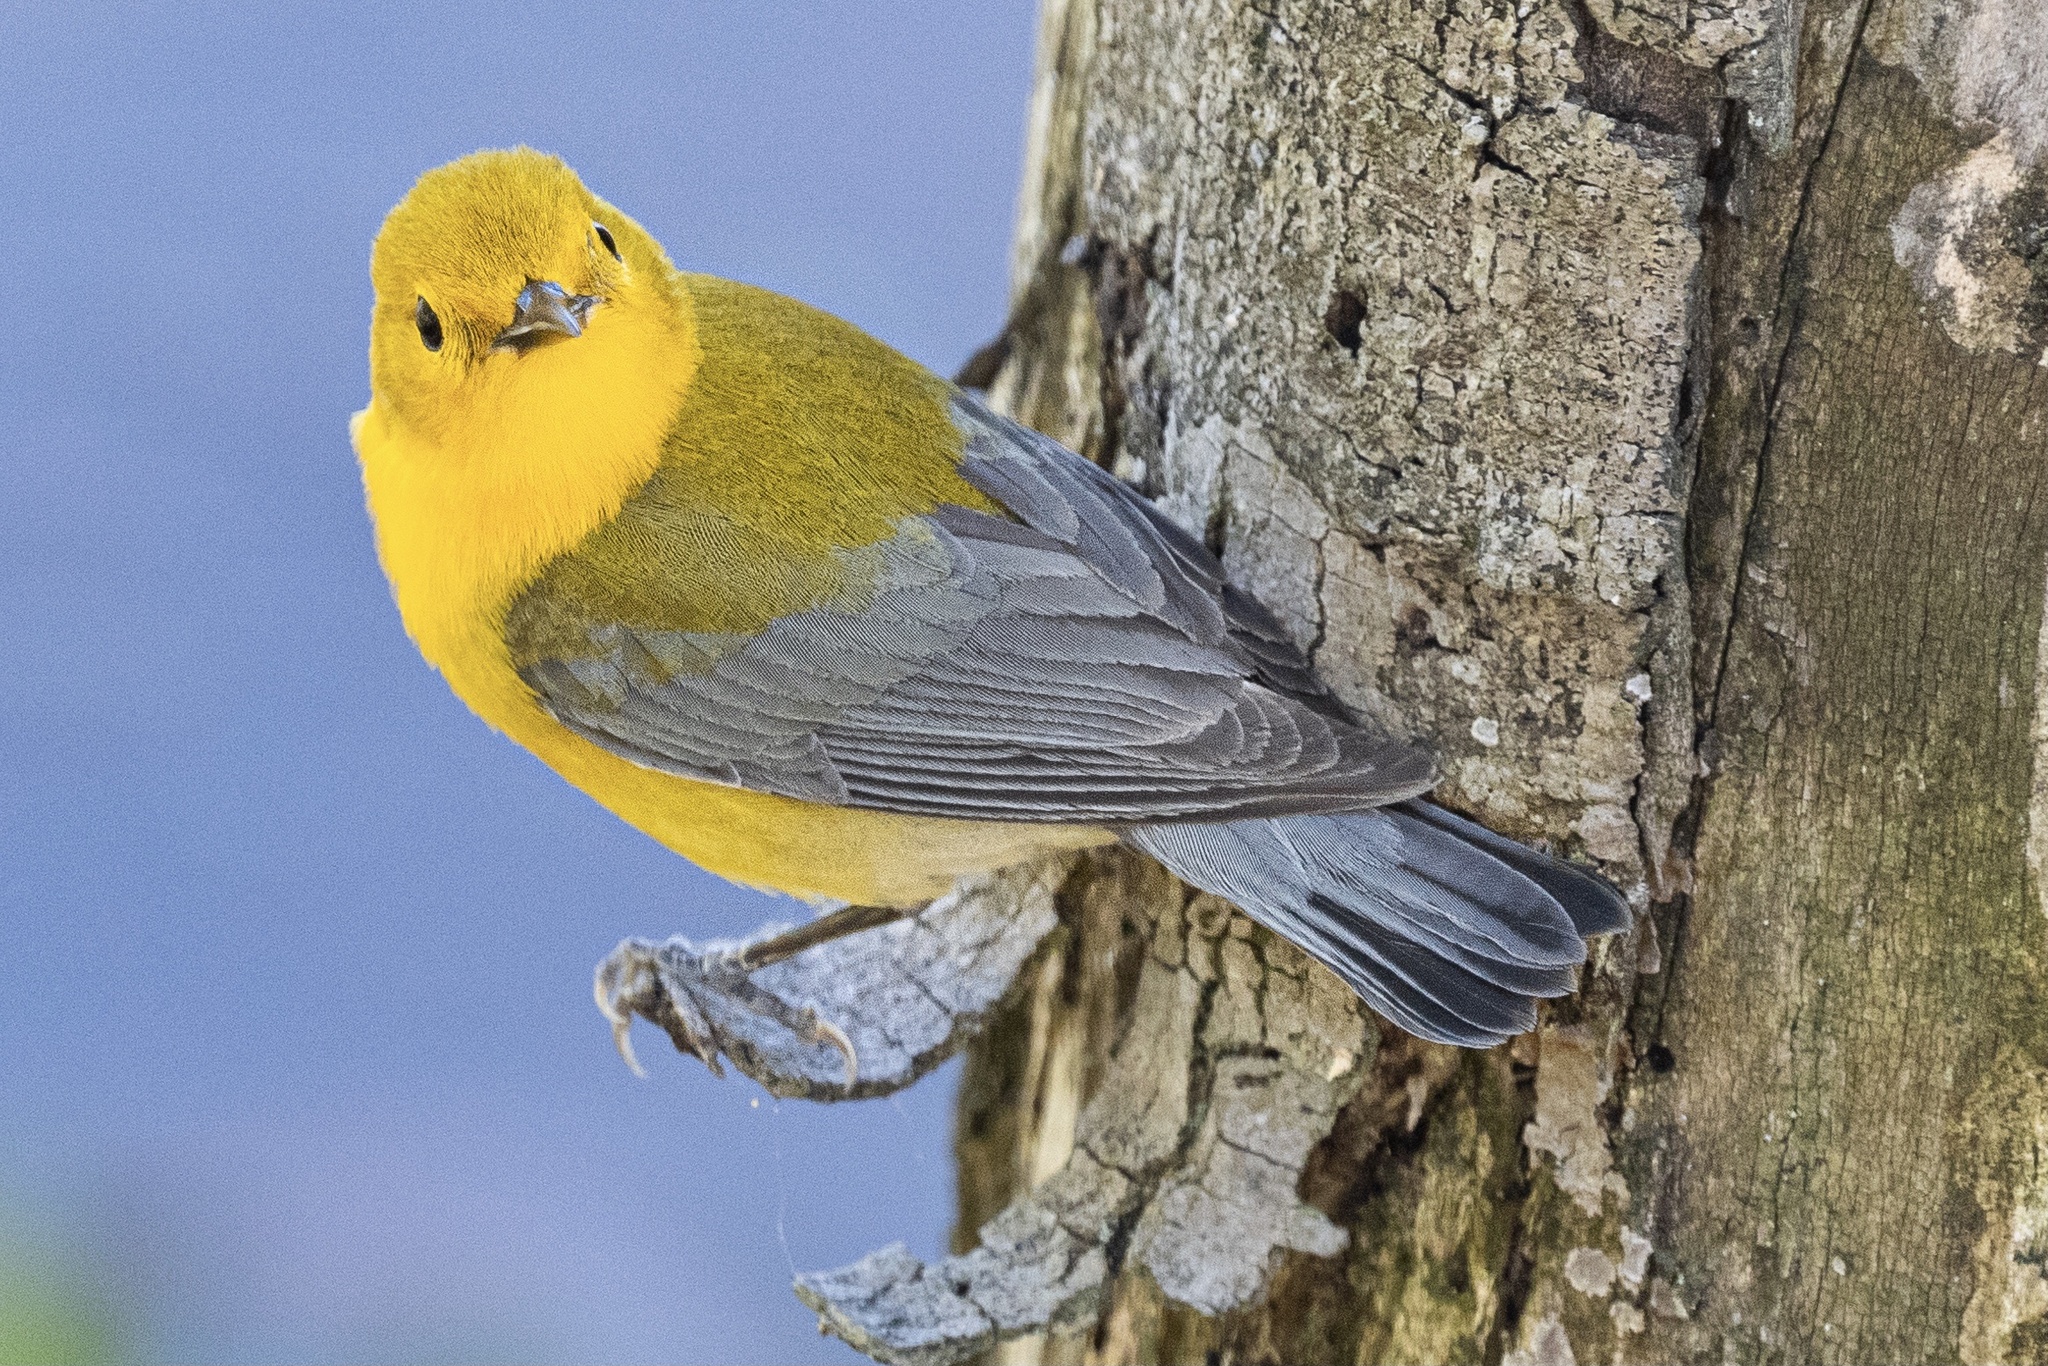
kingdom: Animalia
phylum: Chordata
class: Aves
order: Passeriformes
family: Parulidae
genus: Protonotaria
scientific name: Protonotaria citrea
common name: Prothonotary warbler
